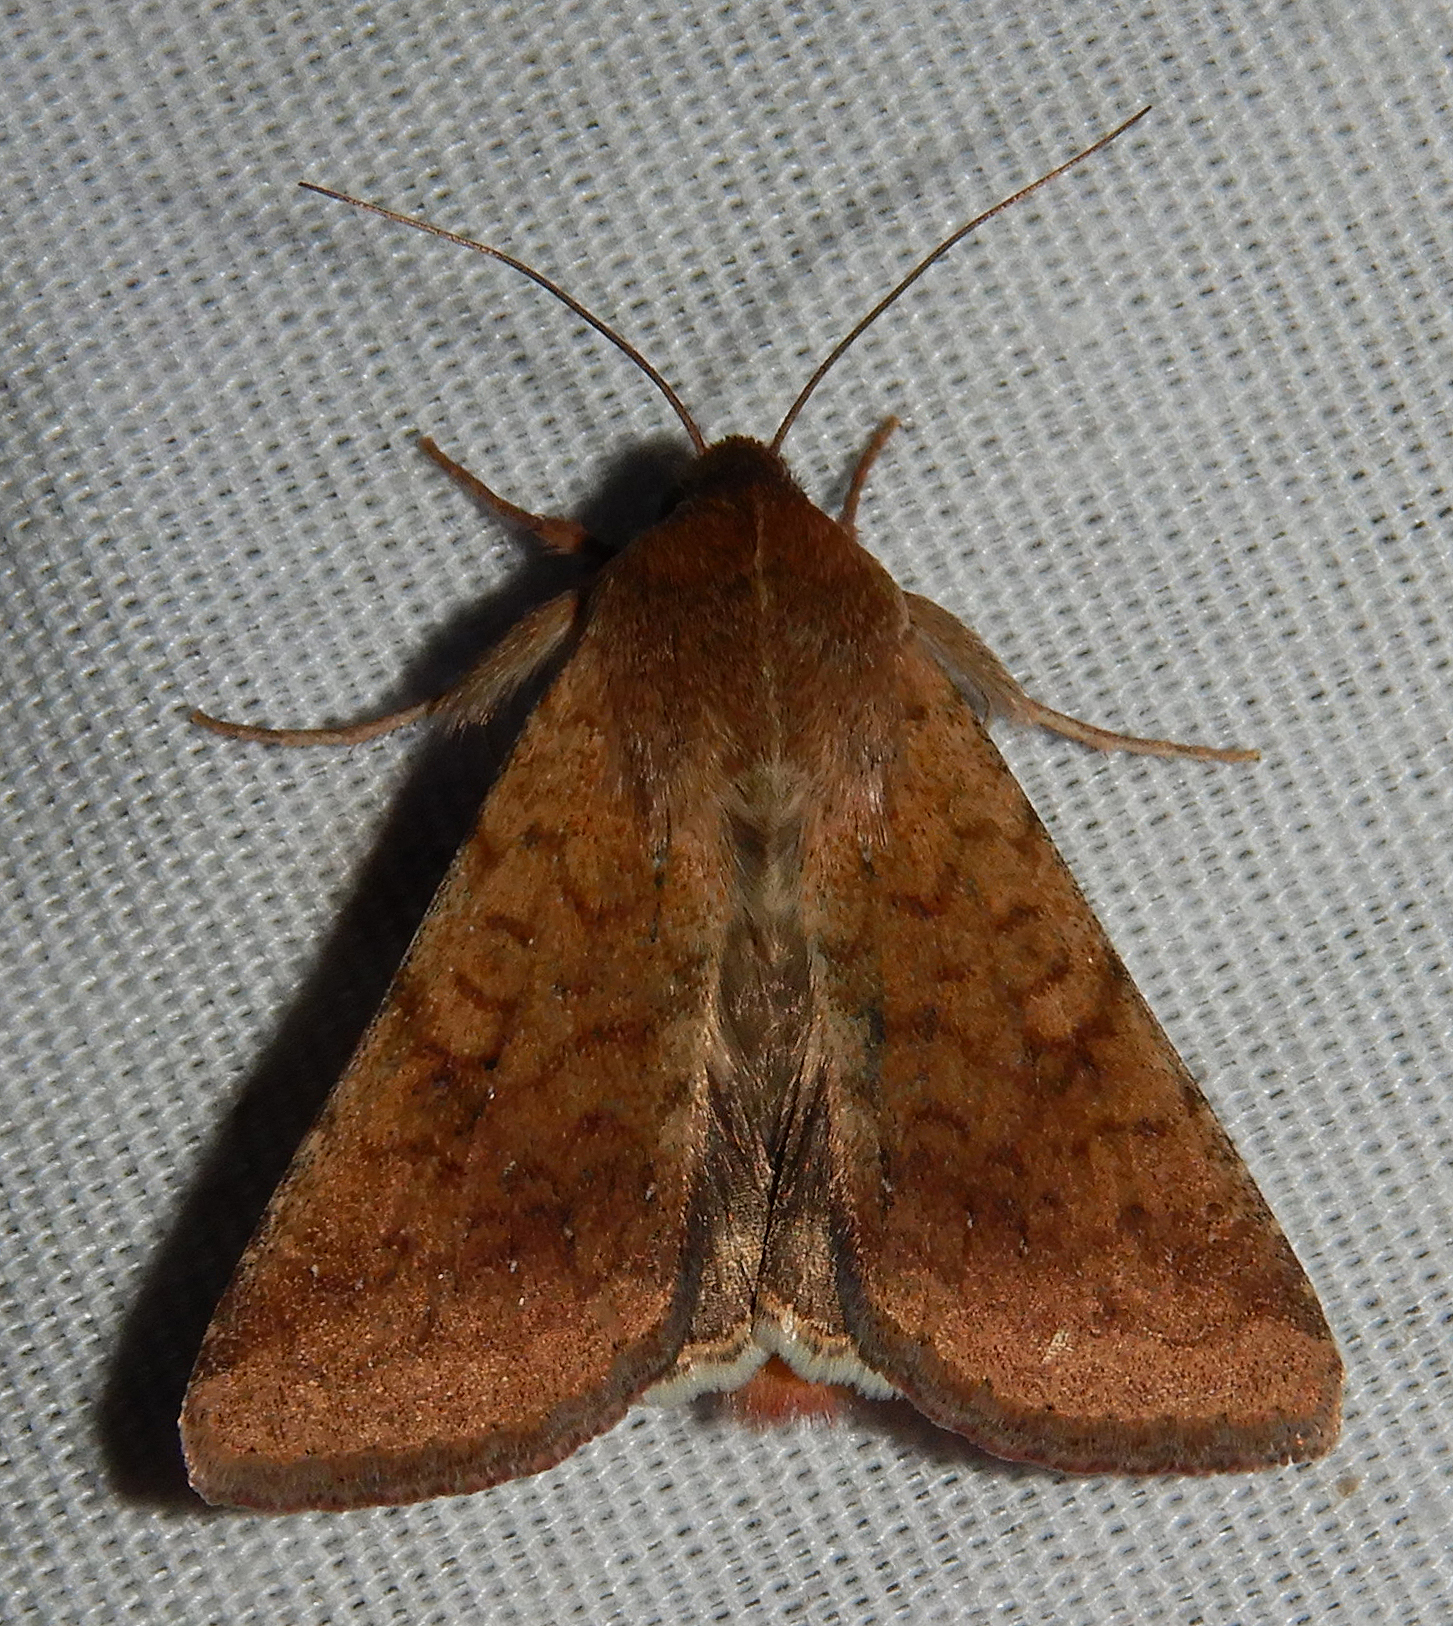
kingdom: Animalia
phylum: Arthropoda
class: Insecta
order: Lepidoptera
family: Noctuidae
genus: Helicoverpa
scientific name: Helicoverpa zea
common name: Bollworm
